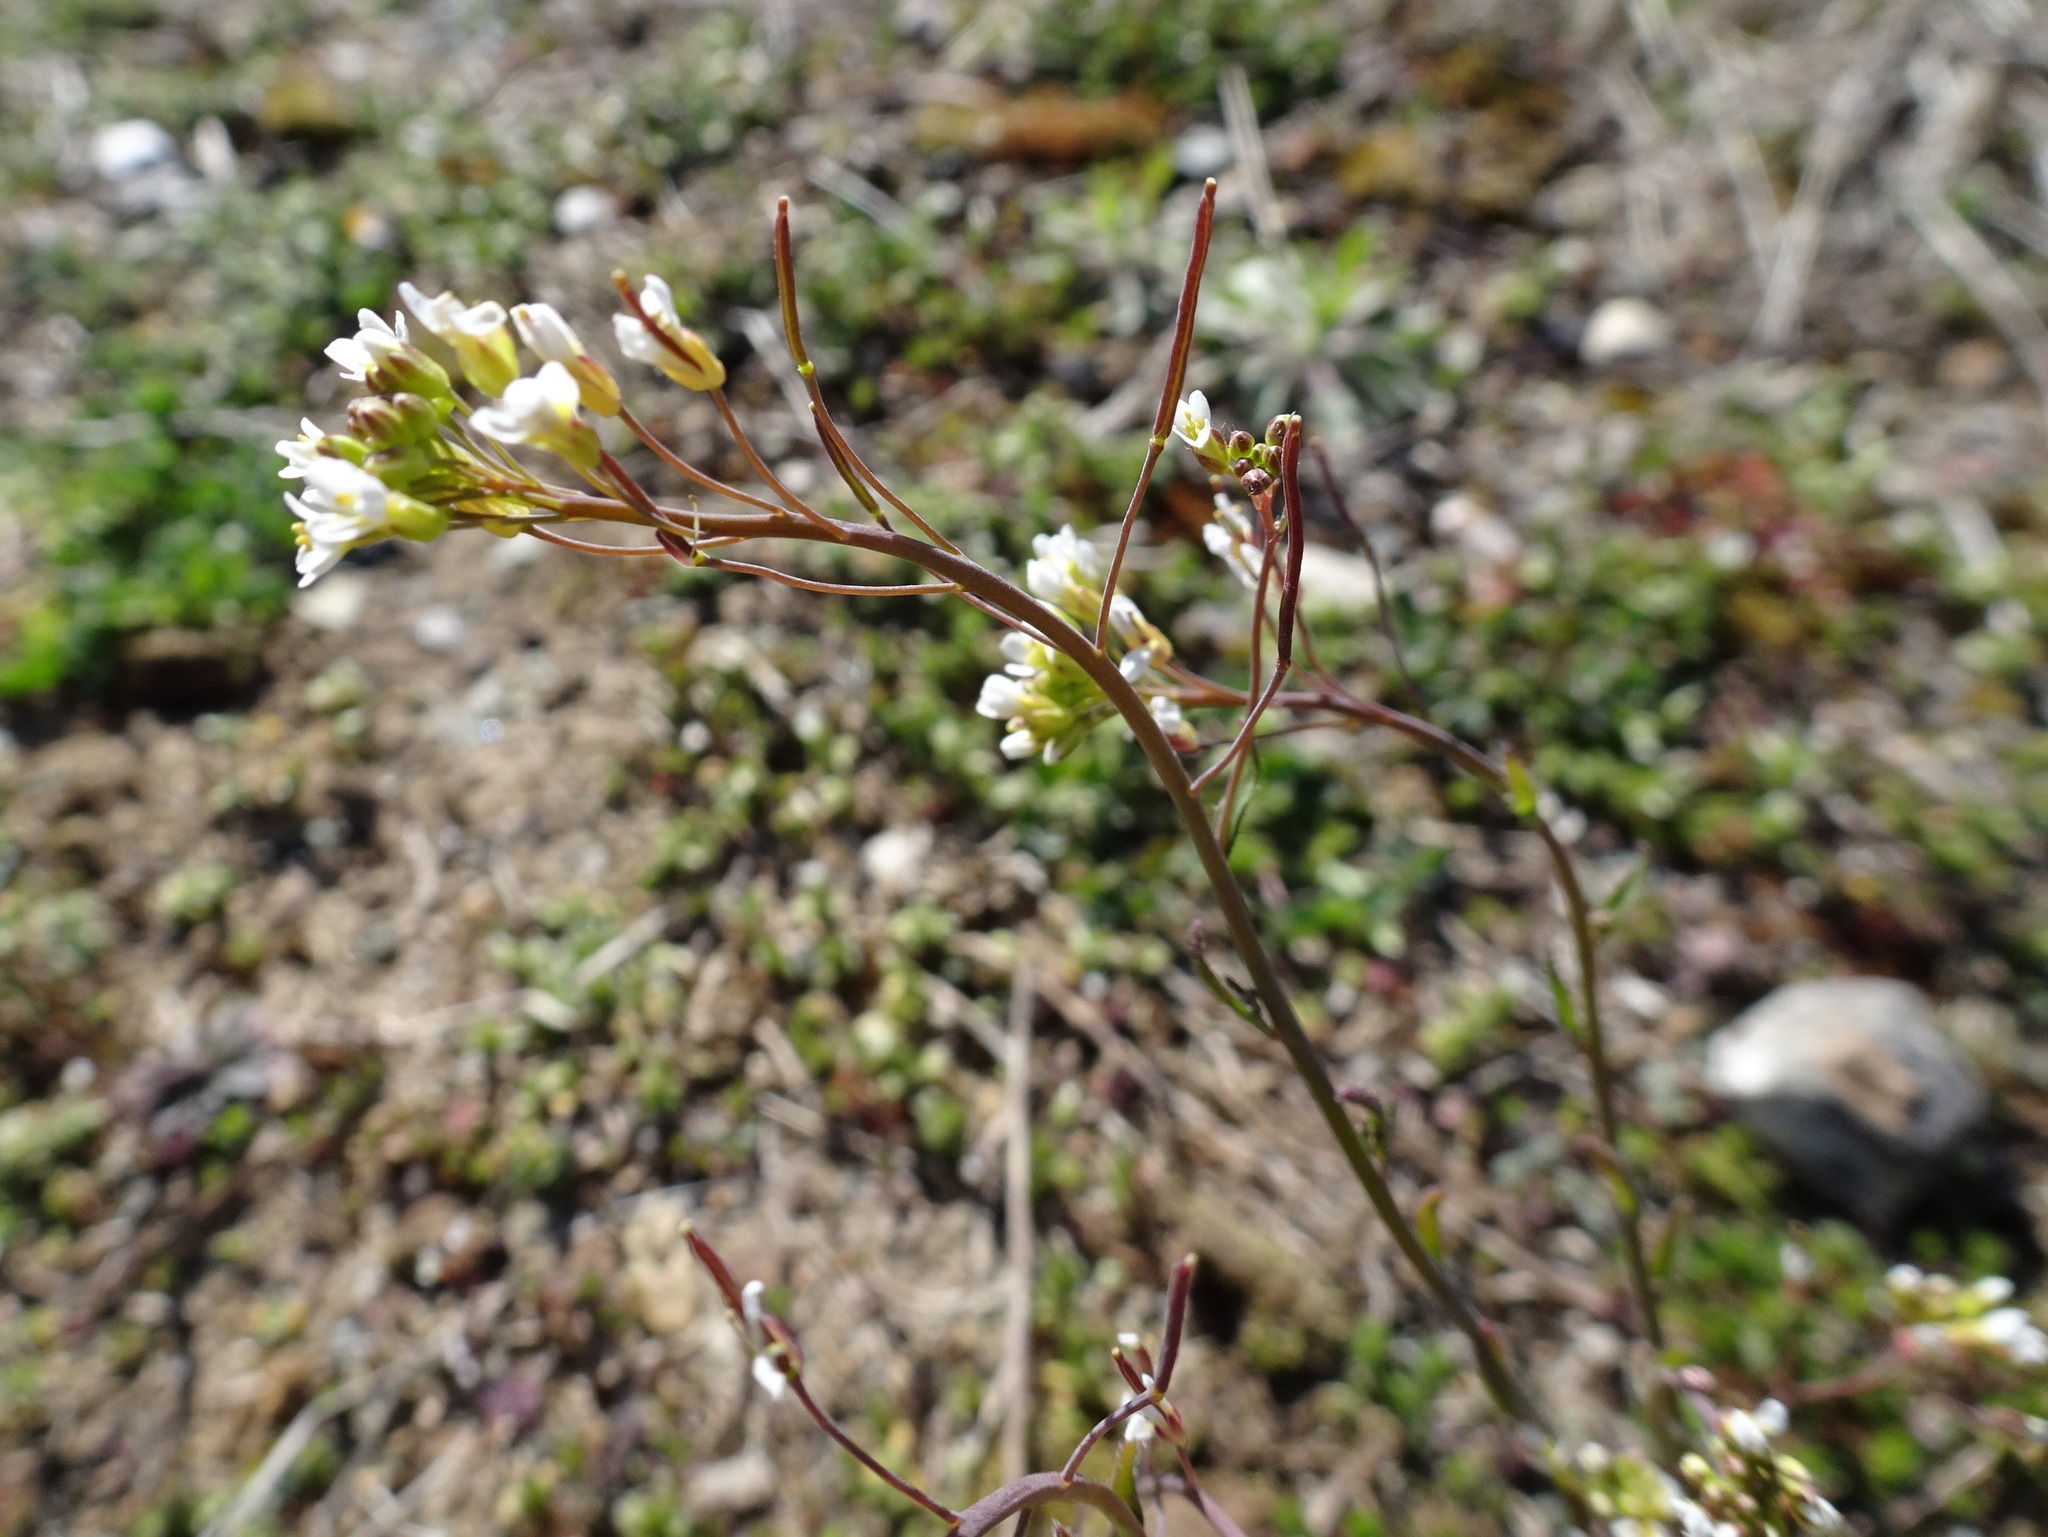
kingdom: Plantae
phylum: Tracheophyta
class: Magnoliopsida
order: Brassicales
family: Brassicaceae
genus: Arabidopsis
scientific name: Arabidopsis thaliana
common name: Thale cress
